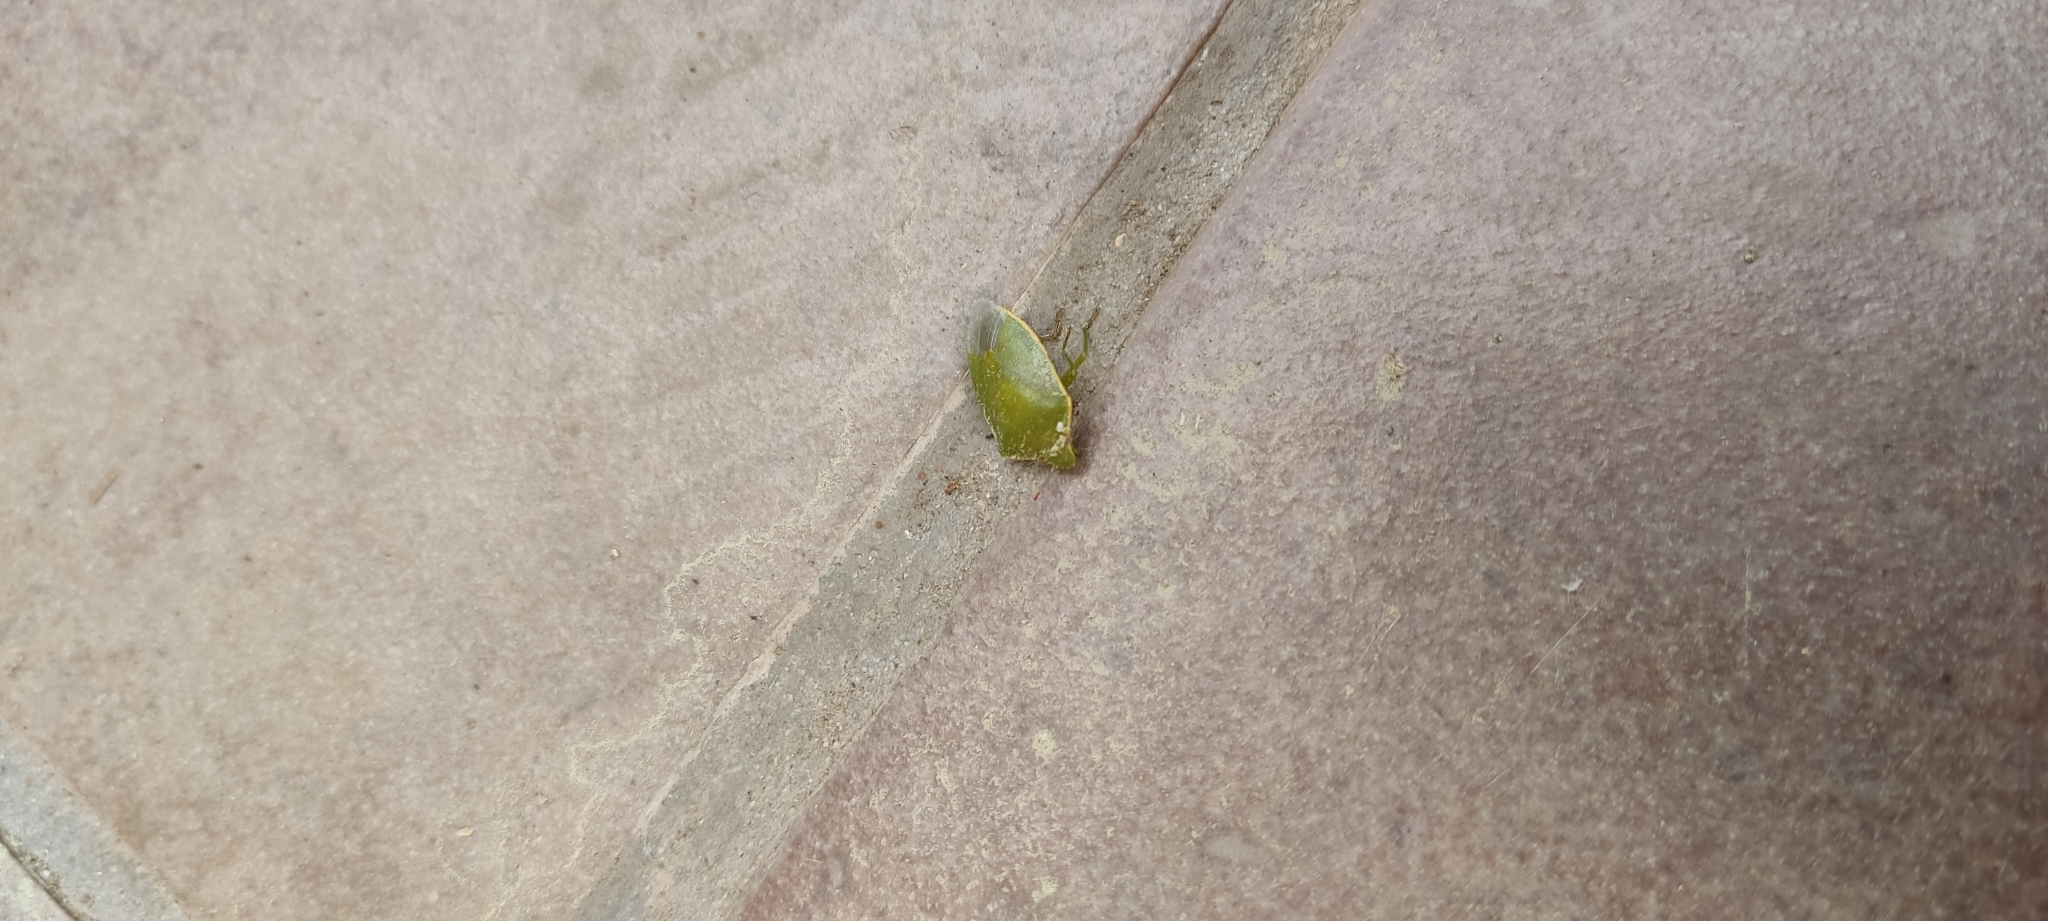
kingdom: Animalia
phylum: Arthropoda
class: Insecta
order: Hemiptera
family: Pentatomidae
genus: Acrosternum
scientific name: Acrosternum heegeri
